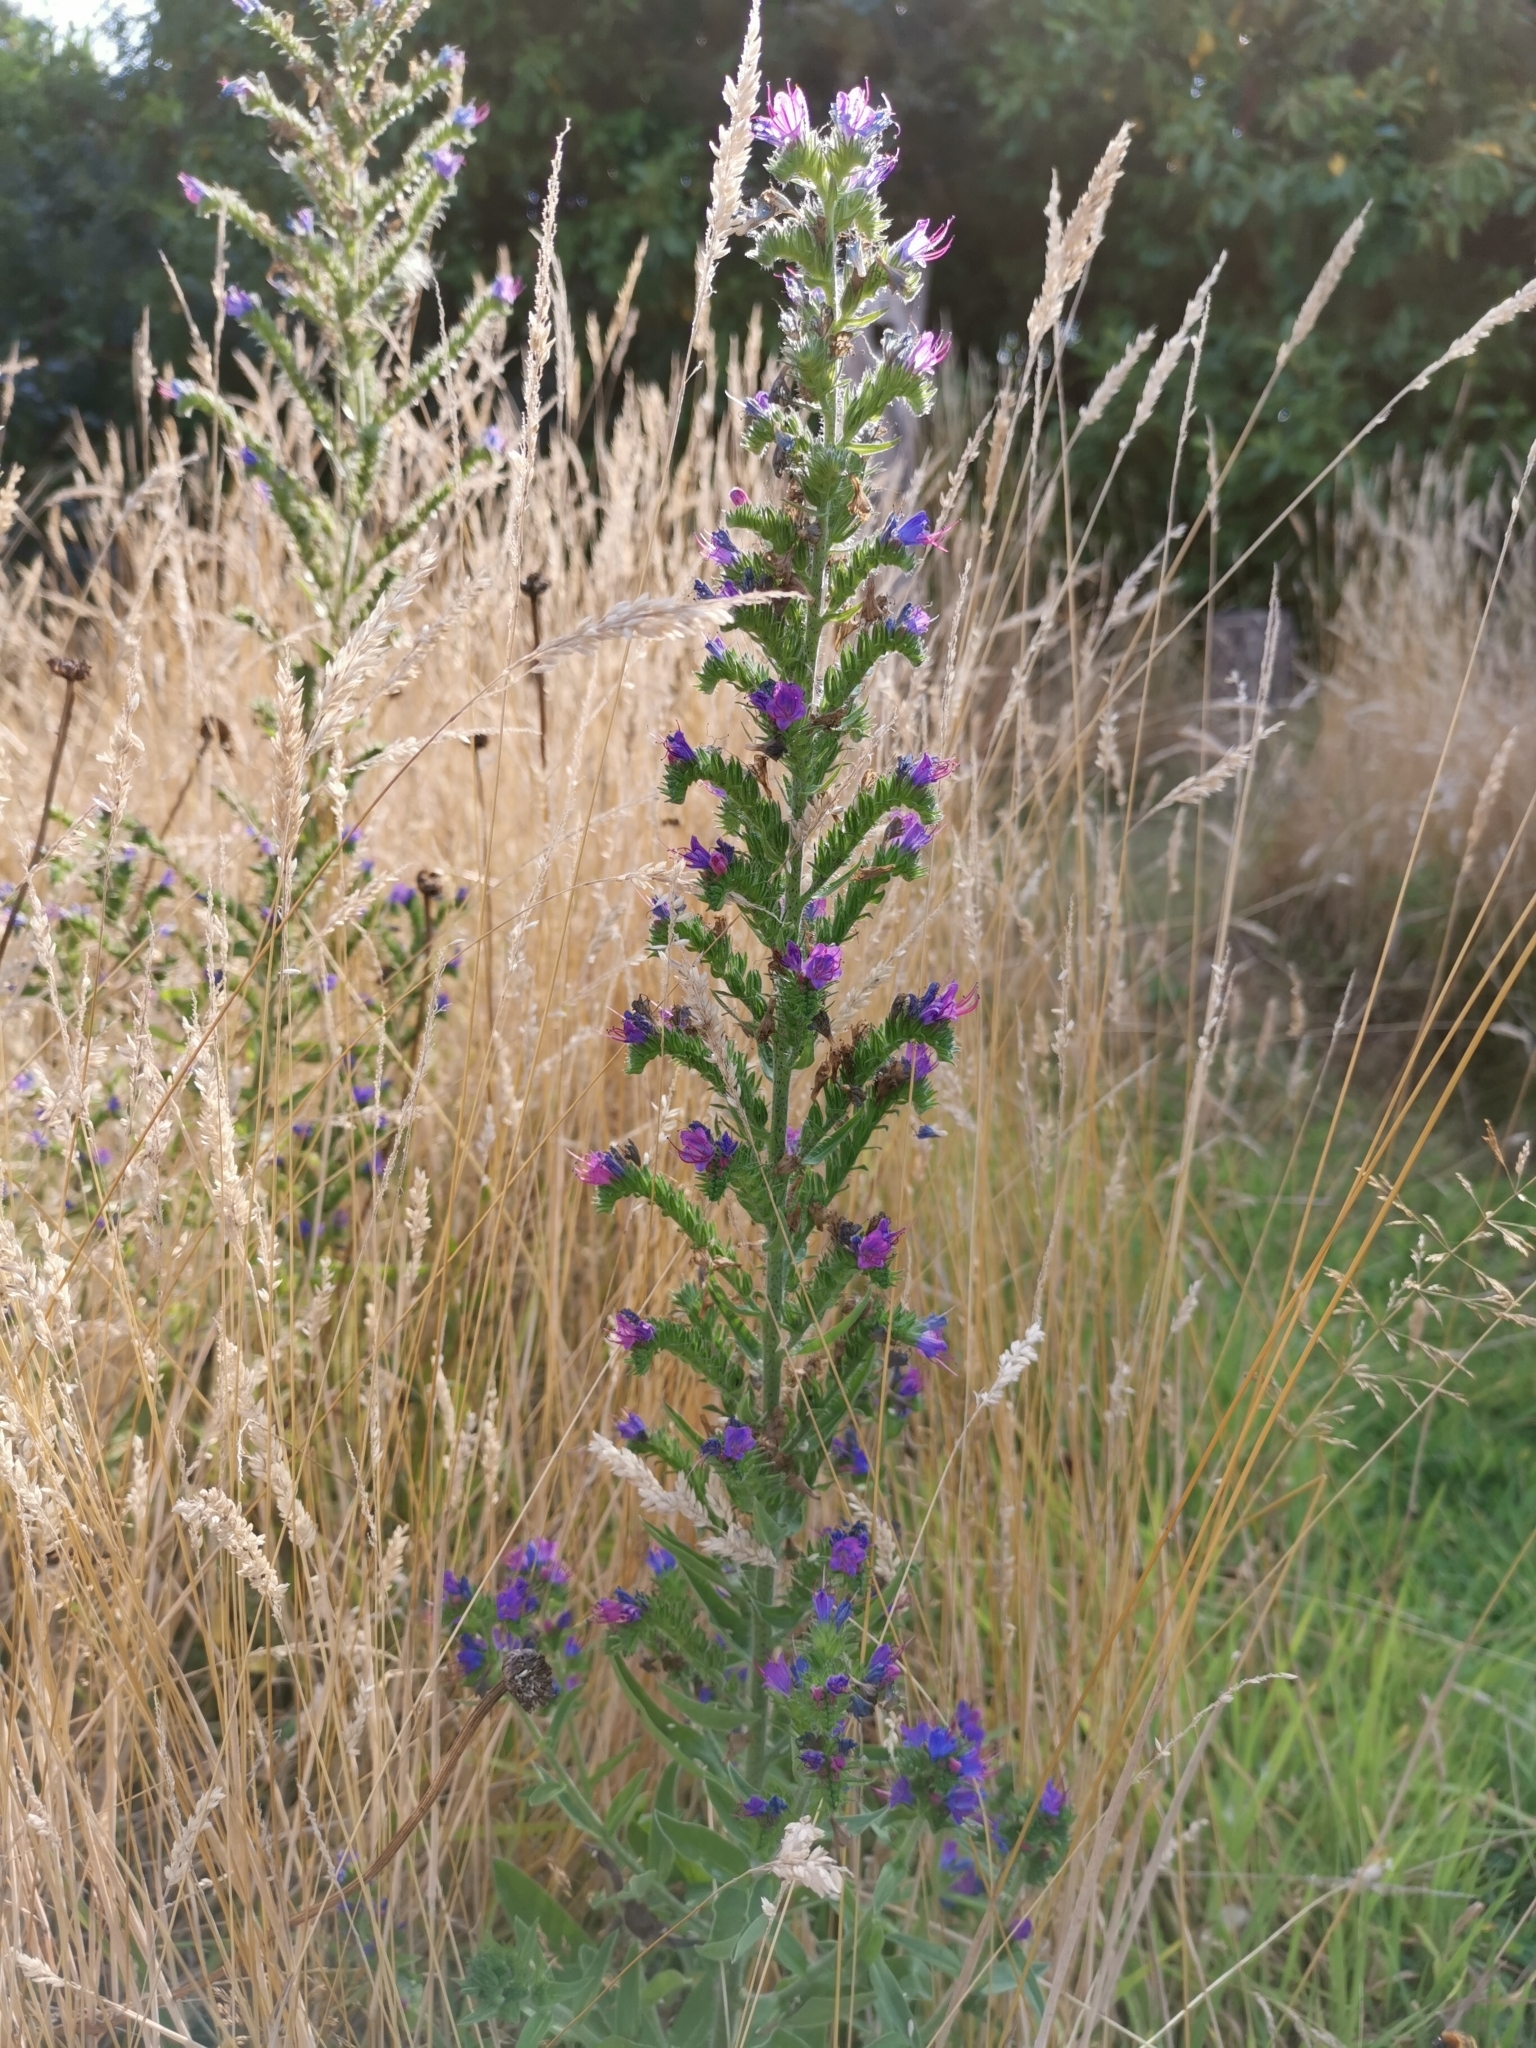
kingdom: Plantae
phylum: Tracheophyta
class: Magnoliopsida
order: Boraginales
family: Boraginaceae
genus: Echium
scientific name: Echium vulgare
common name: Common viper's bugloss
